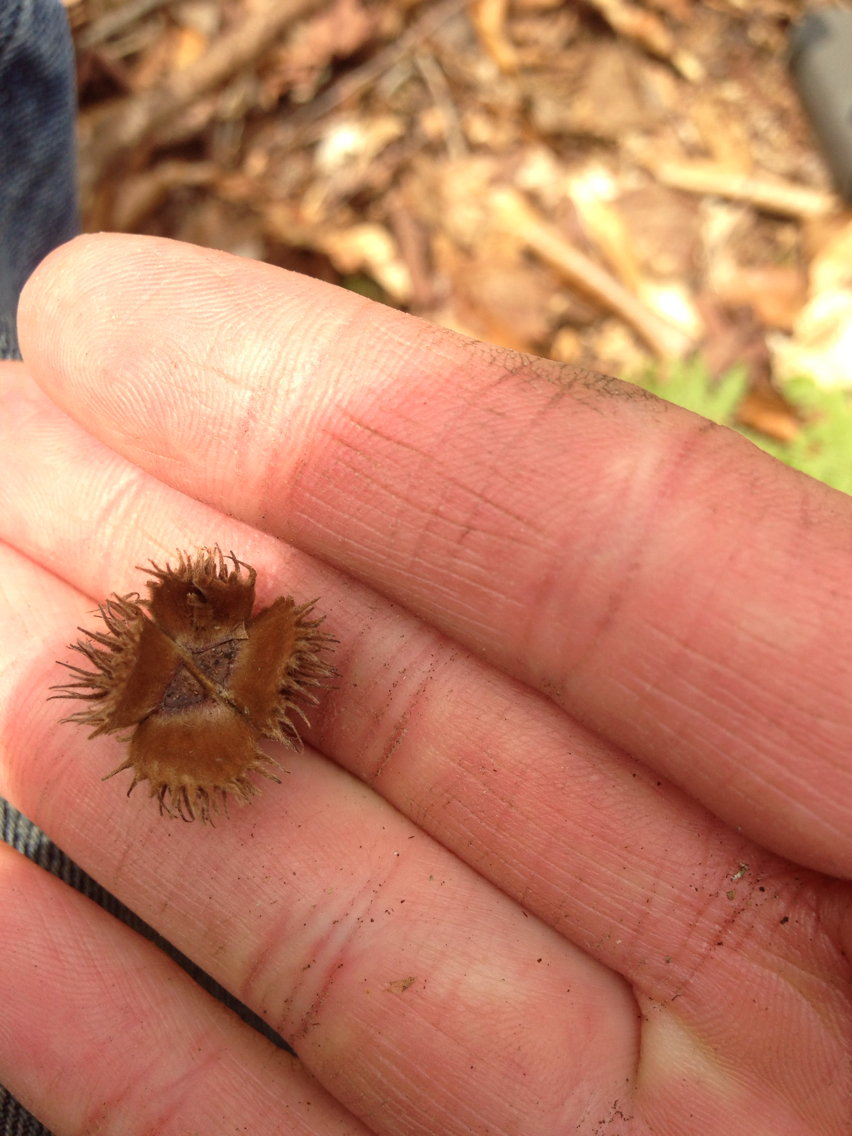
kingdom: Plantae
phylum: Tracheophyta
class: Magnoliopsida
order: Fagales
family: Fagaceae
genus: Fagus
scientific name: Fagus grandifolia
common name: American beech
